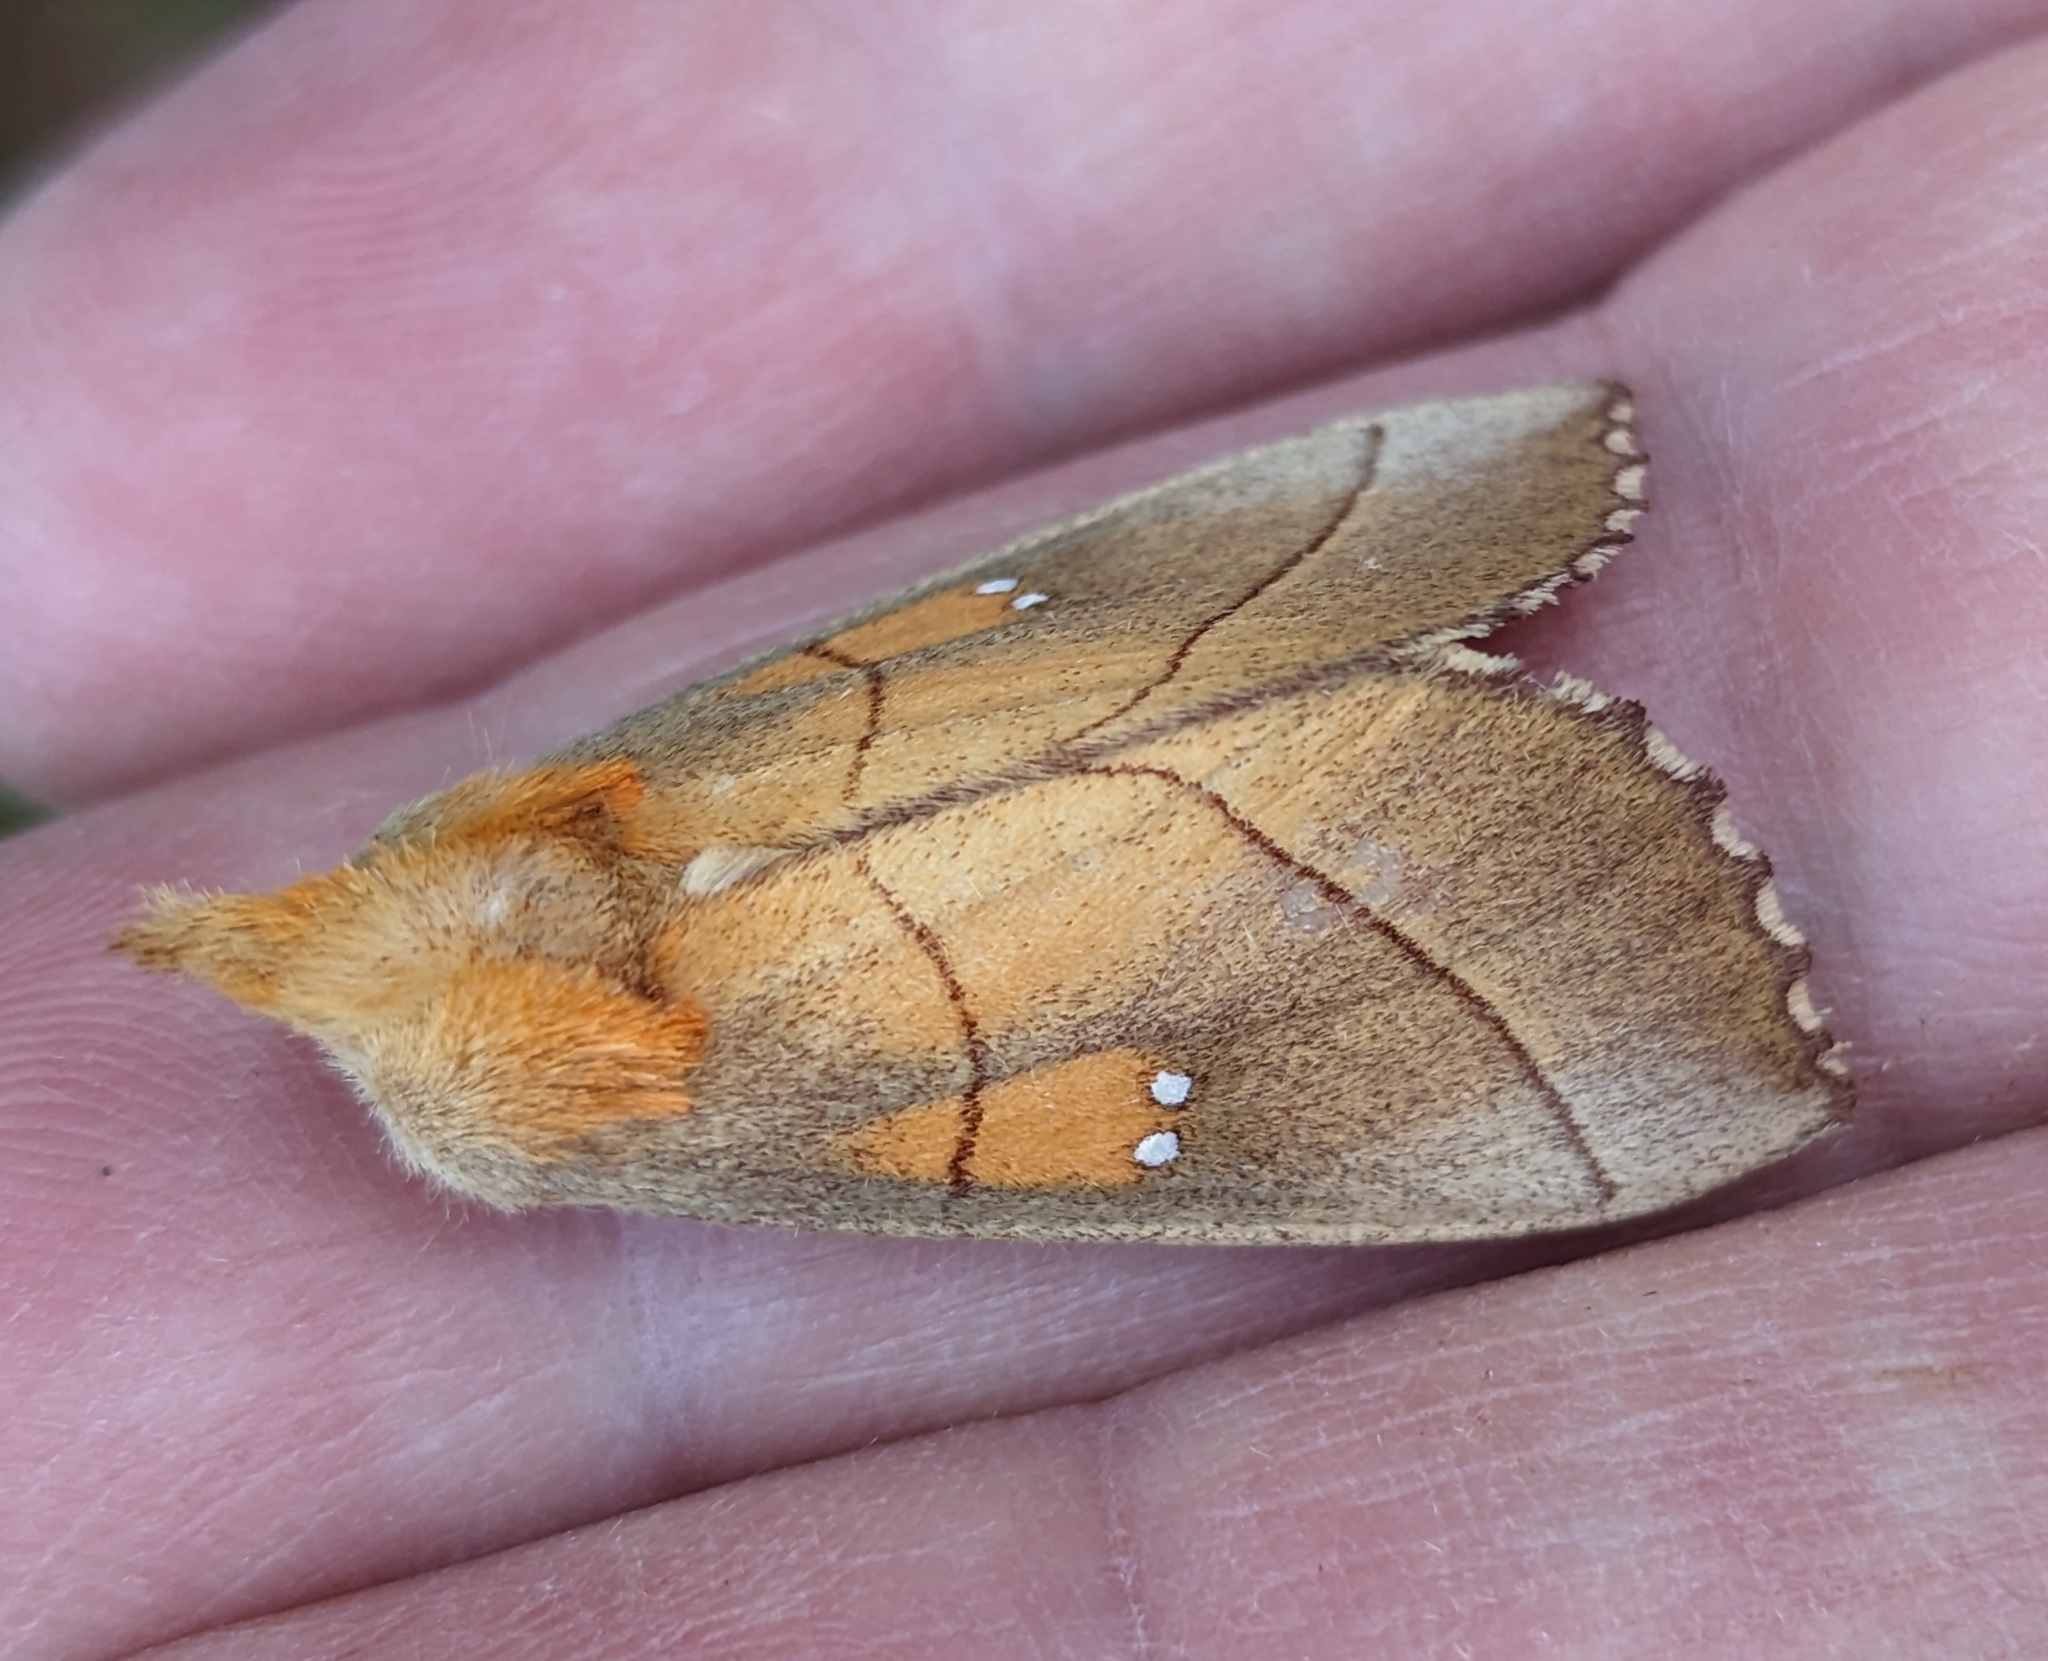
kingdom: Animalia
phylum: Arthropoda
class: Insecta
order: Lepidoptera
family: Notodontidae
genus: Nadata
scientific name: Nadata gibbosa
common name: White-dotted prominent
